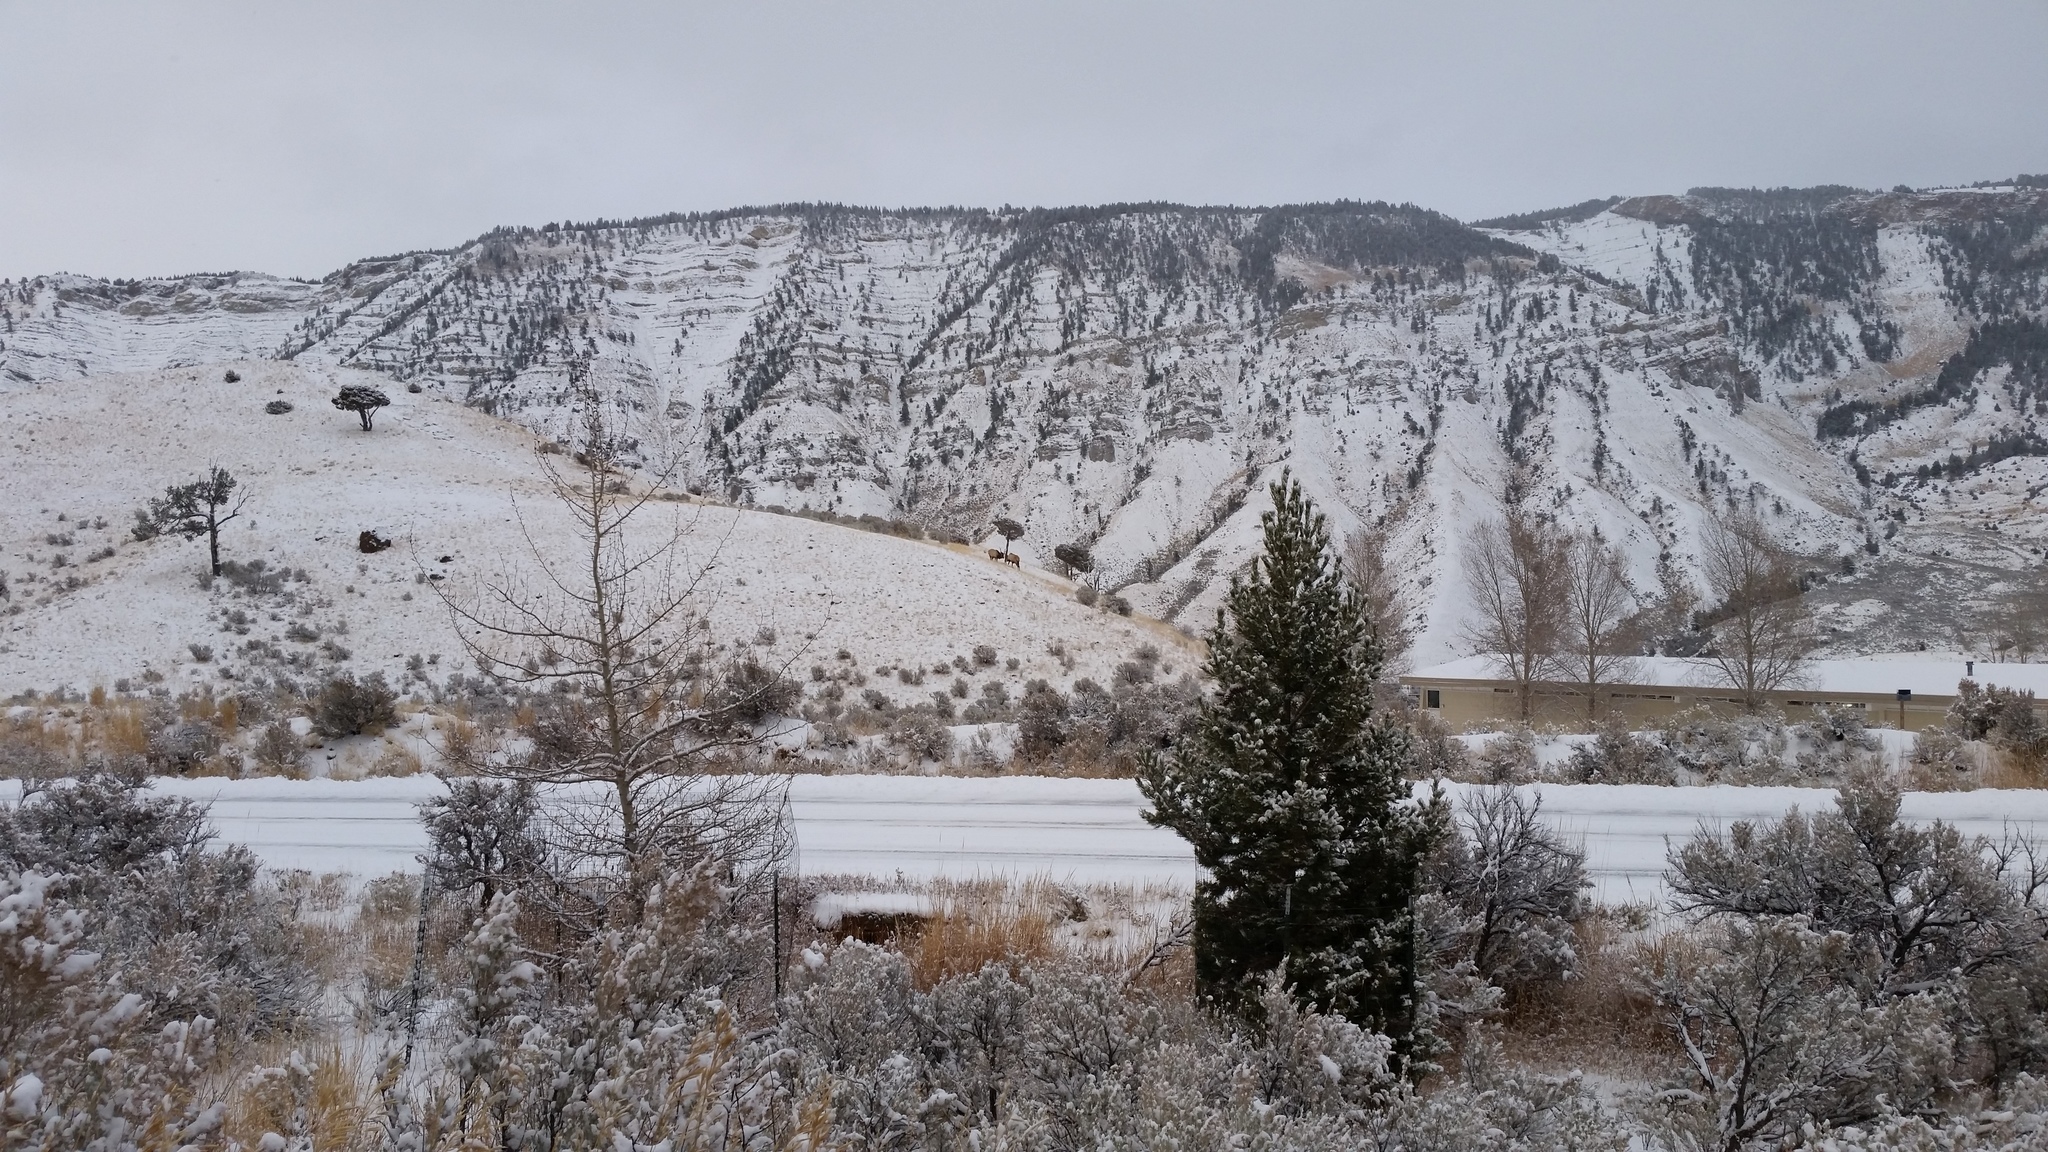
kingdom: Animalia
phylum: Chordata
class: Mammalia
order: Artiodactyla
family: Cervidae
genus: Cervus
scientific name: Cervus elaphus
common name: Red deer
